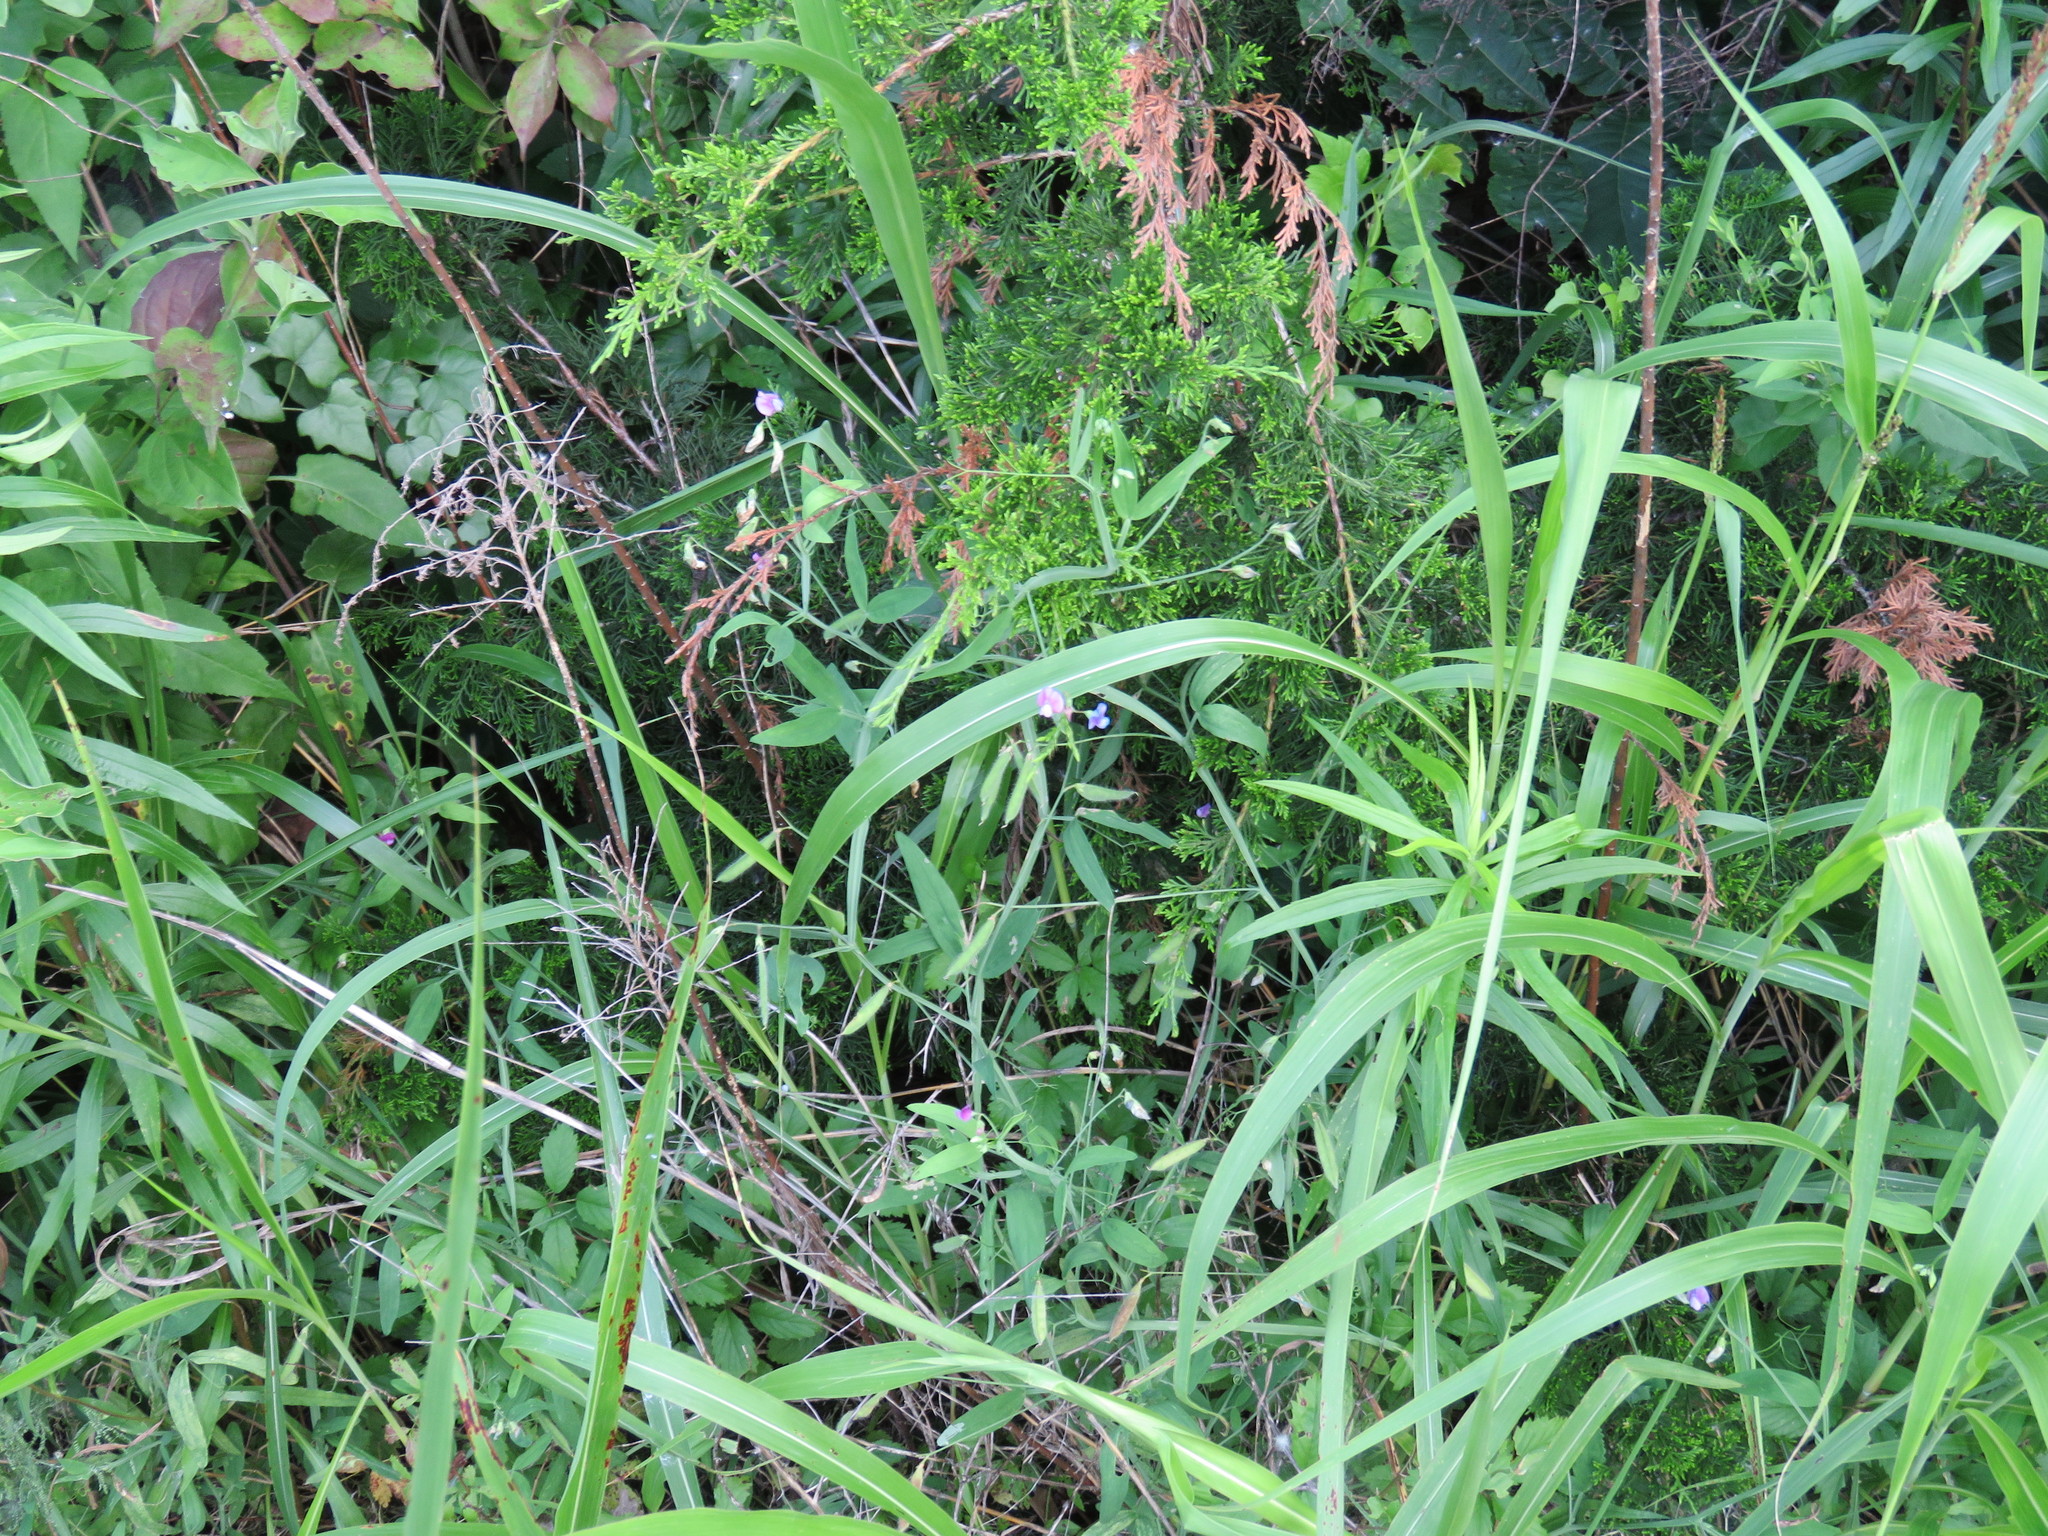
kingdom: Plantae
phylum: Tracheophyta
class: Magnoliopsida
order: Fabales
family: Fabaceae
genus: Lathyrus
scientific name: Lathyrus hirsutus
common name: Hairy vetchling
